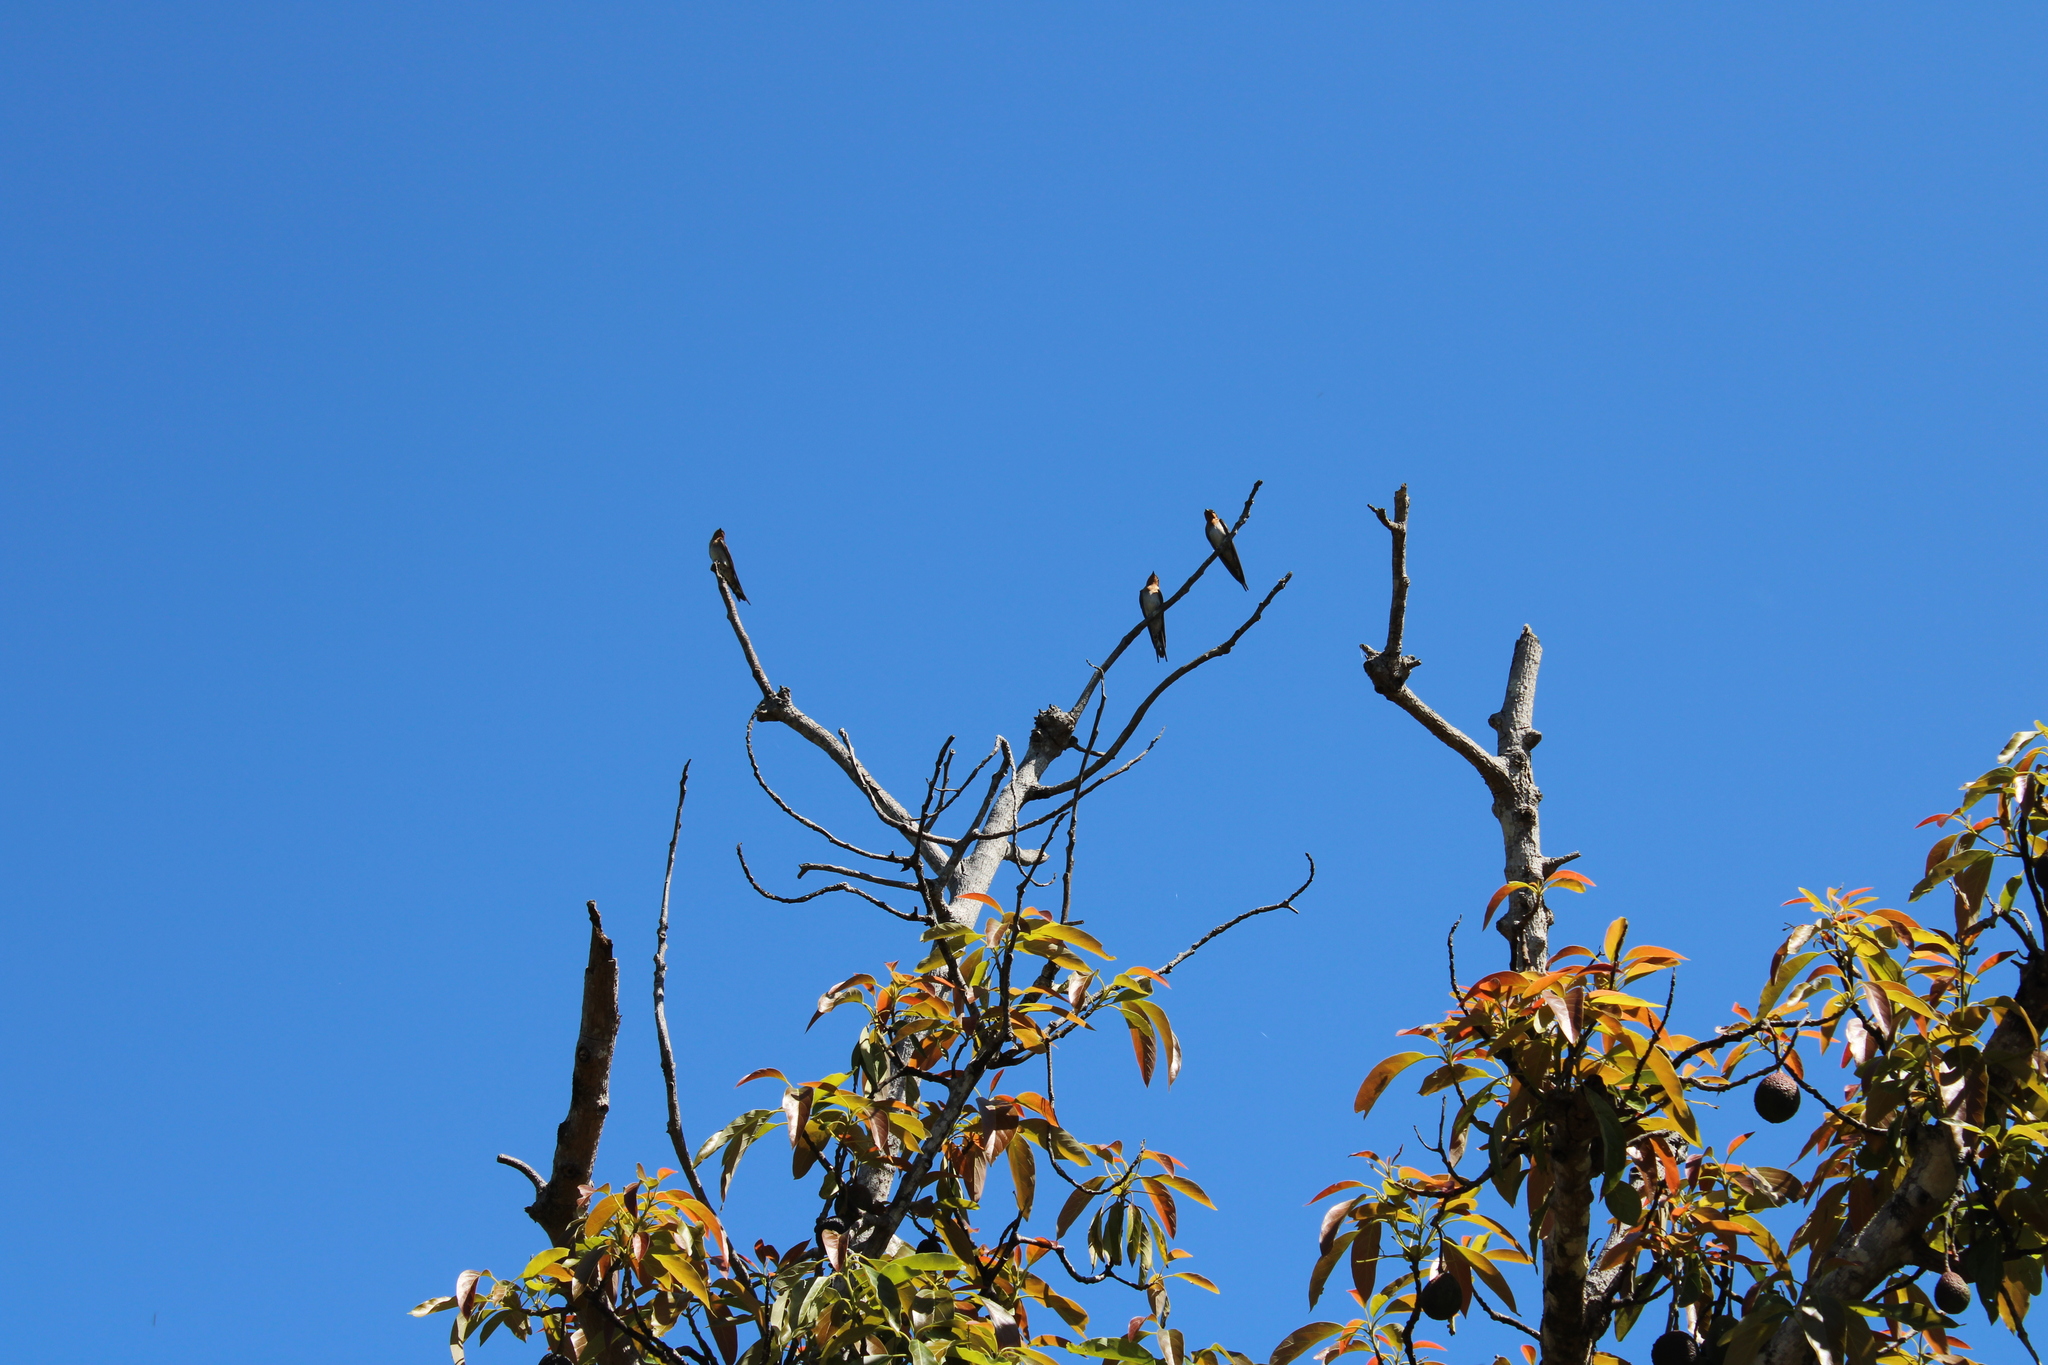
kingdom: Animalia
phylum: Chordata
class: Aves
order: Passeriformes
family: Hirundinidae
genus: Hirundo
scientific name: Hirundo neoxena
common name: Welcome swallow
